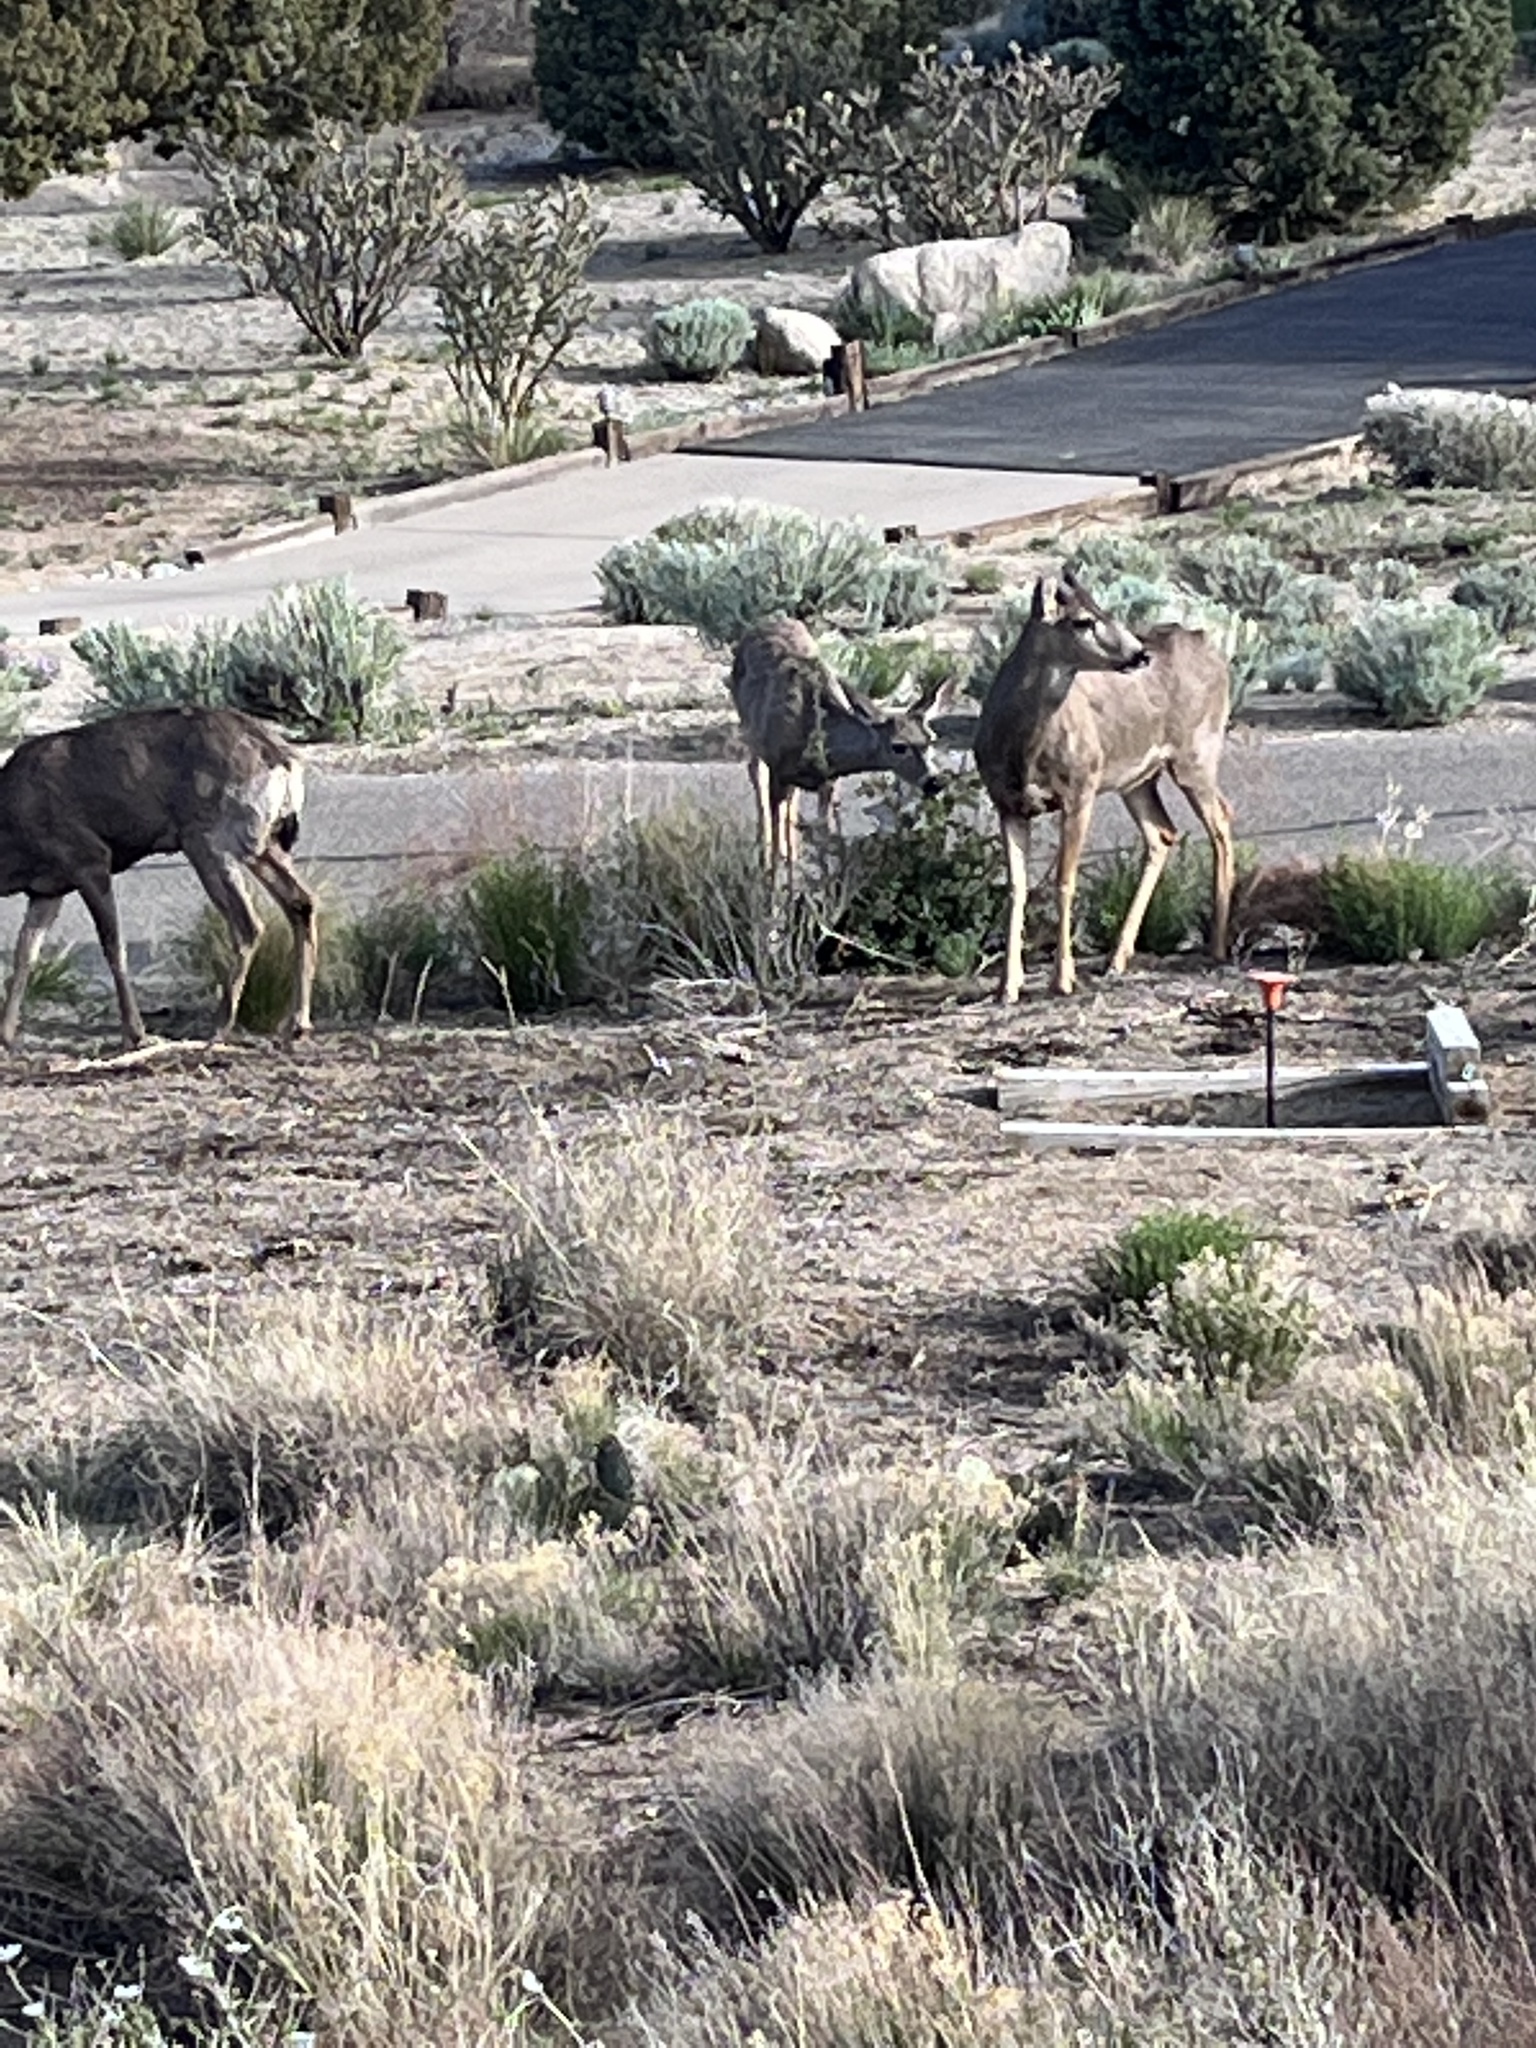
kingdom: Animalia
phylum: Chordata
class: Mammalia
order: Artiodactyla
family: Cervidae
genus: Odocoileus
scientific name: Odocoileus hemionus
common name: Mule deer
